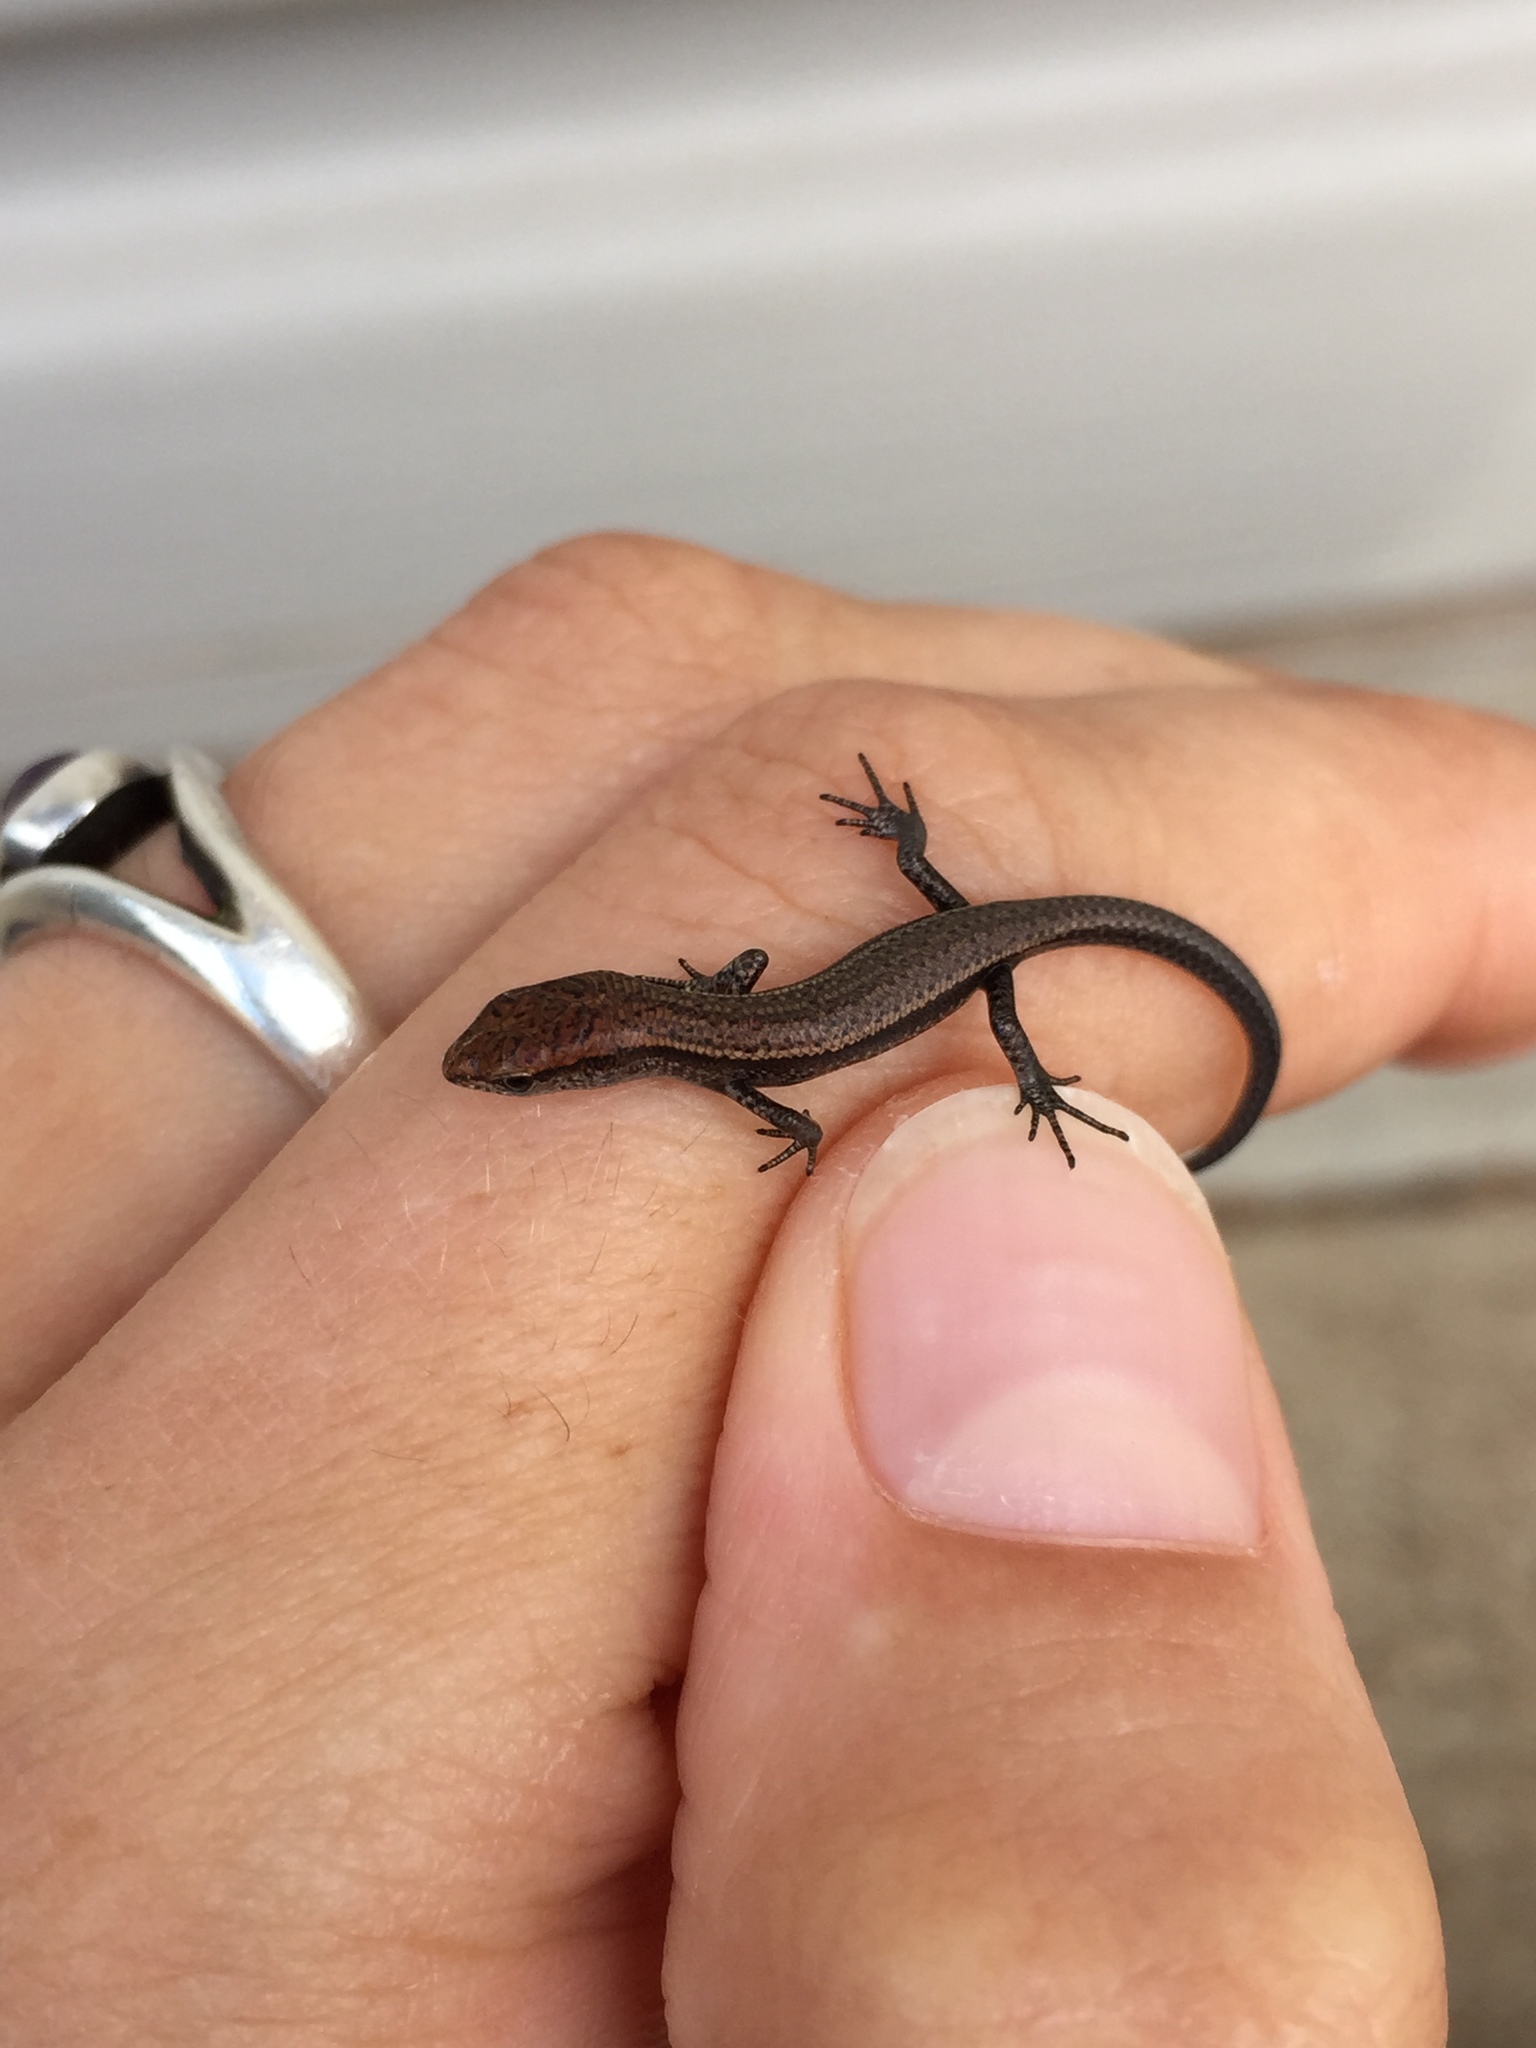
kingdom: Animalia
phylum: Chordata
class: Squamata
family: Scincidae
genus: Lampropholis
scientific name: Lampropholis delicata
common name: Plague skink
